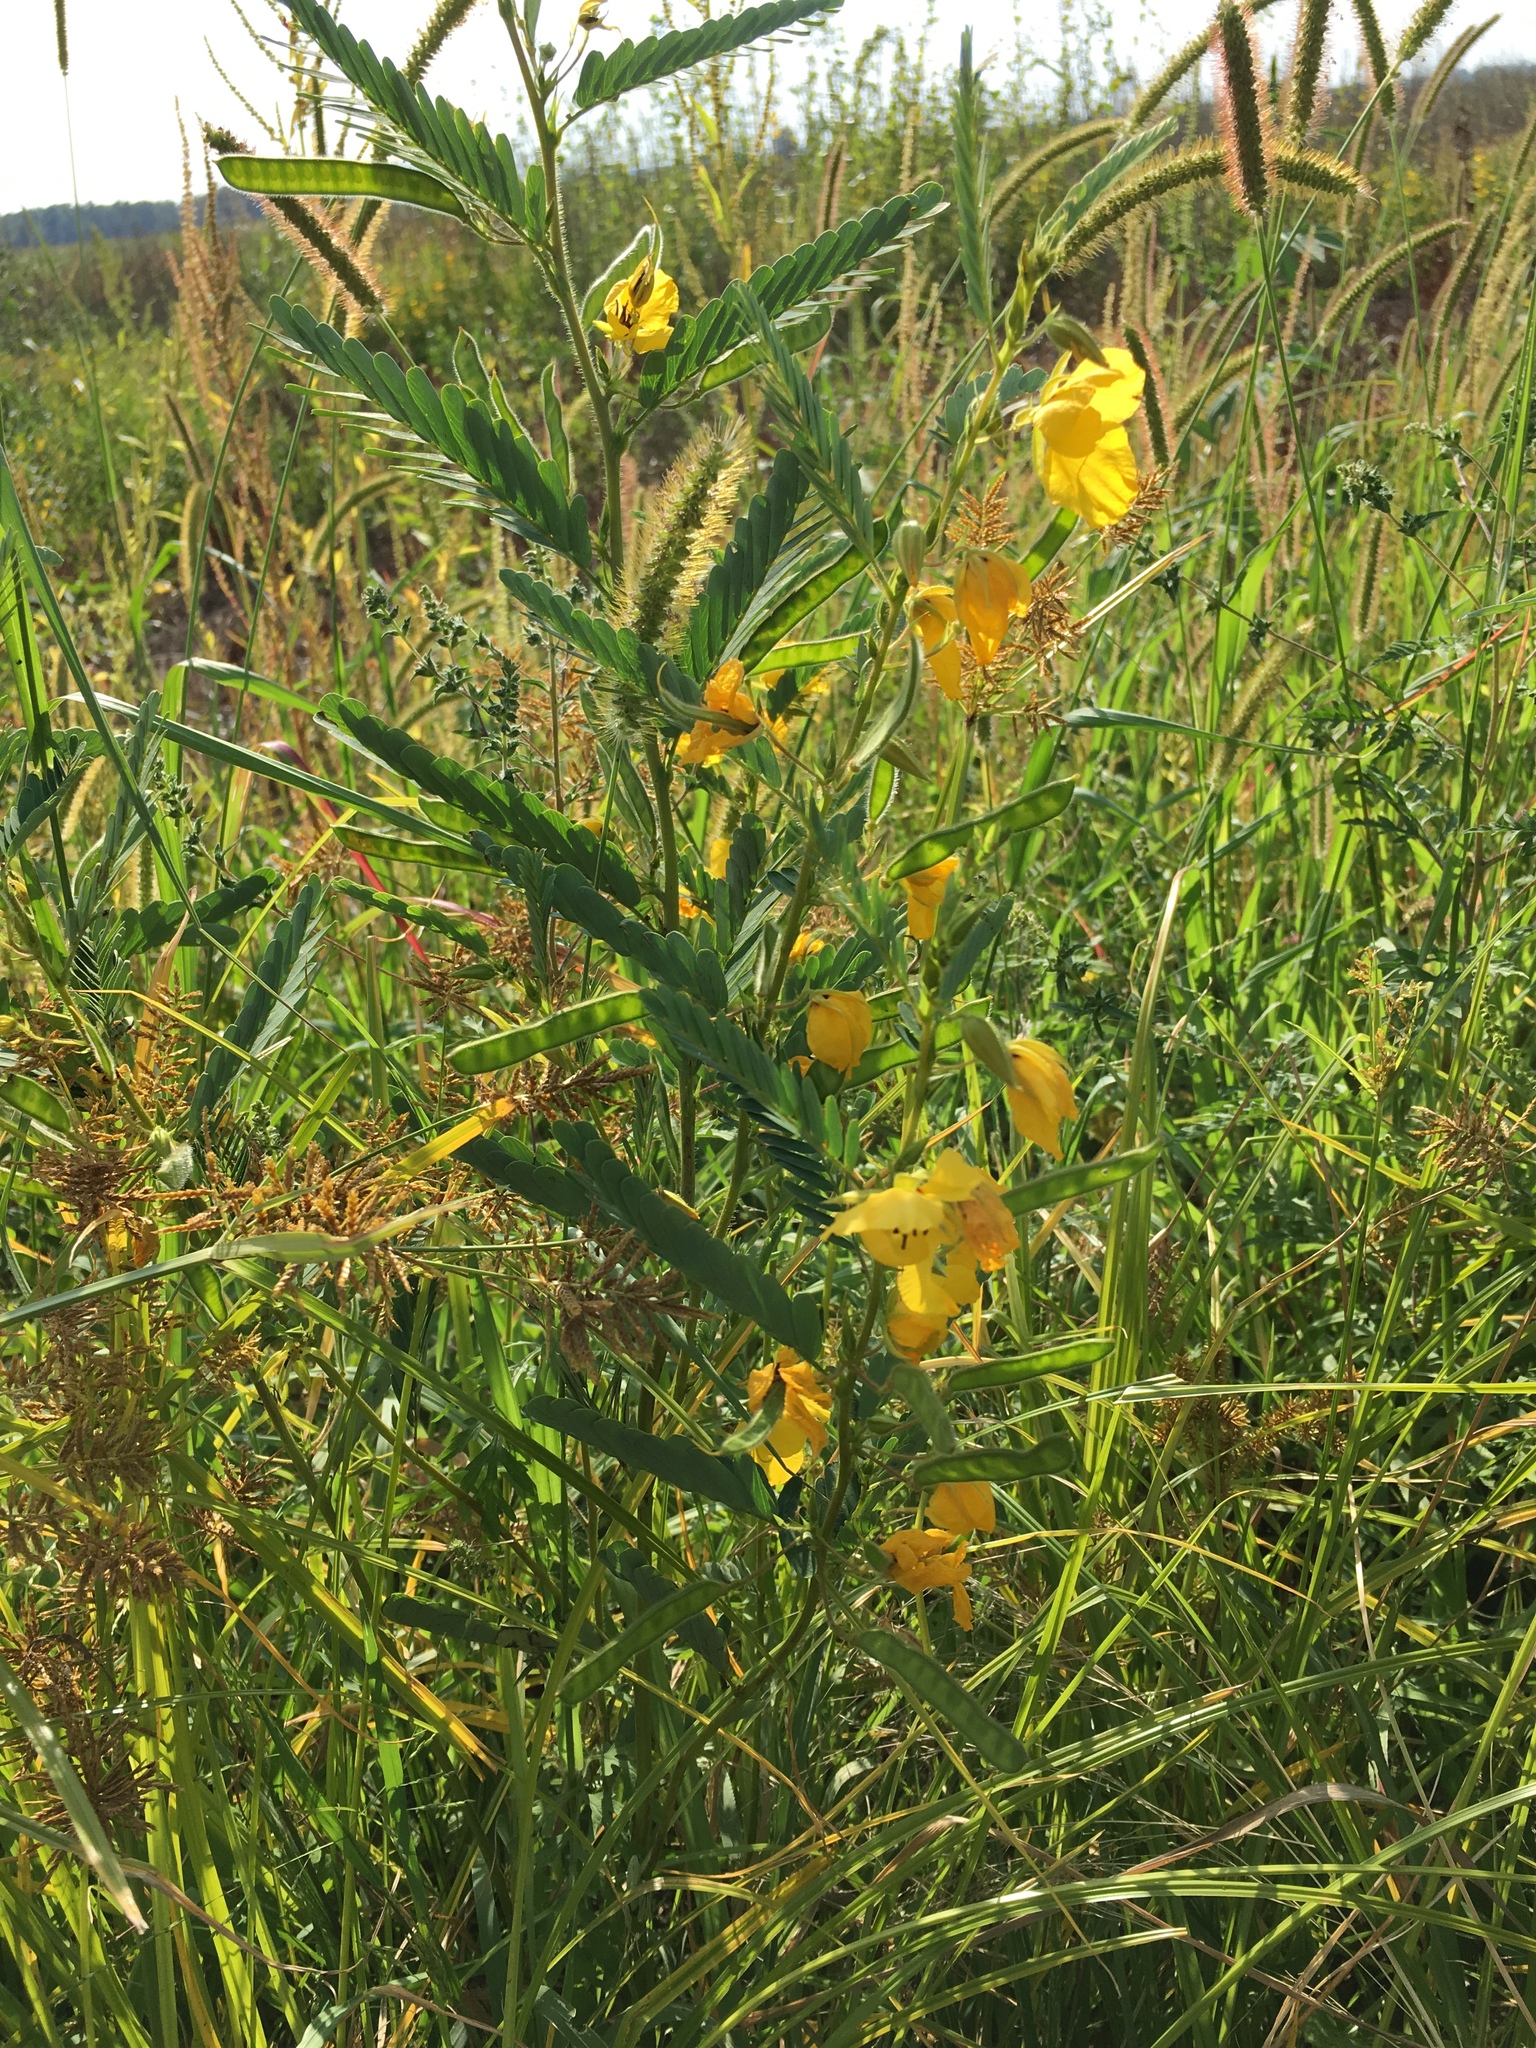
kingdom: Plantae
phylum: Tracheophyta
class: Magnoliopsida
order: Fabales
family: Fabaceae
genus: Chamaecrista
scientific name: Chamaecrista fasciculata
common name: Golden cassia
